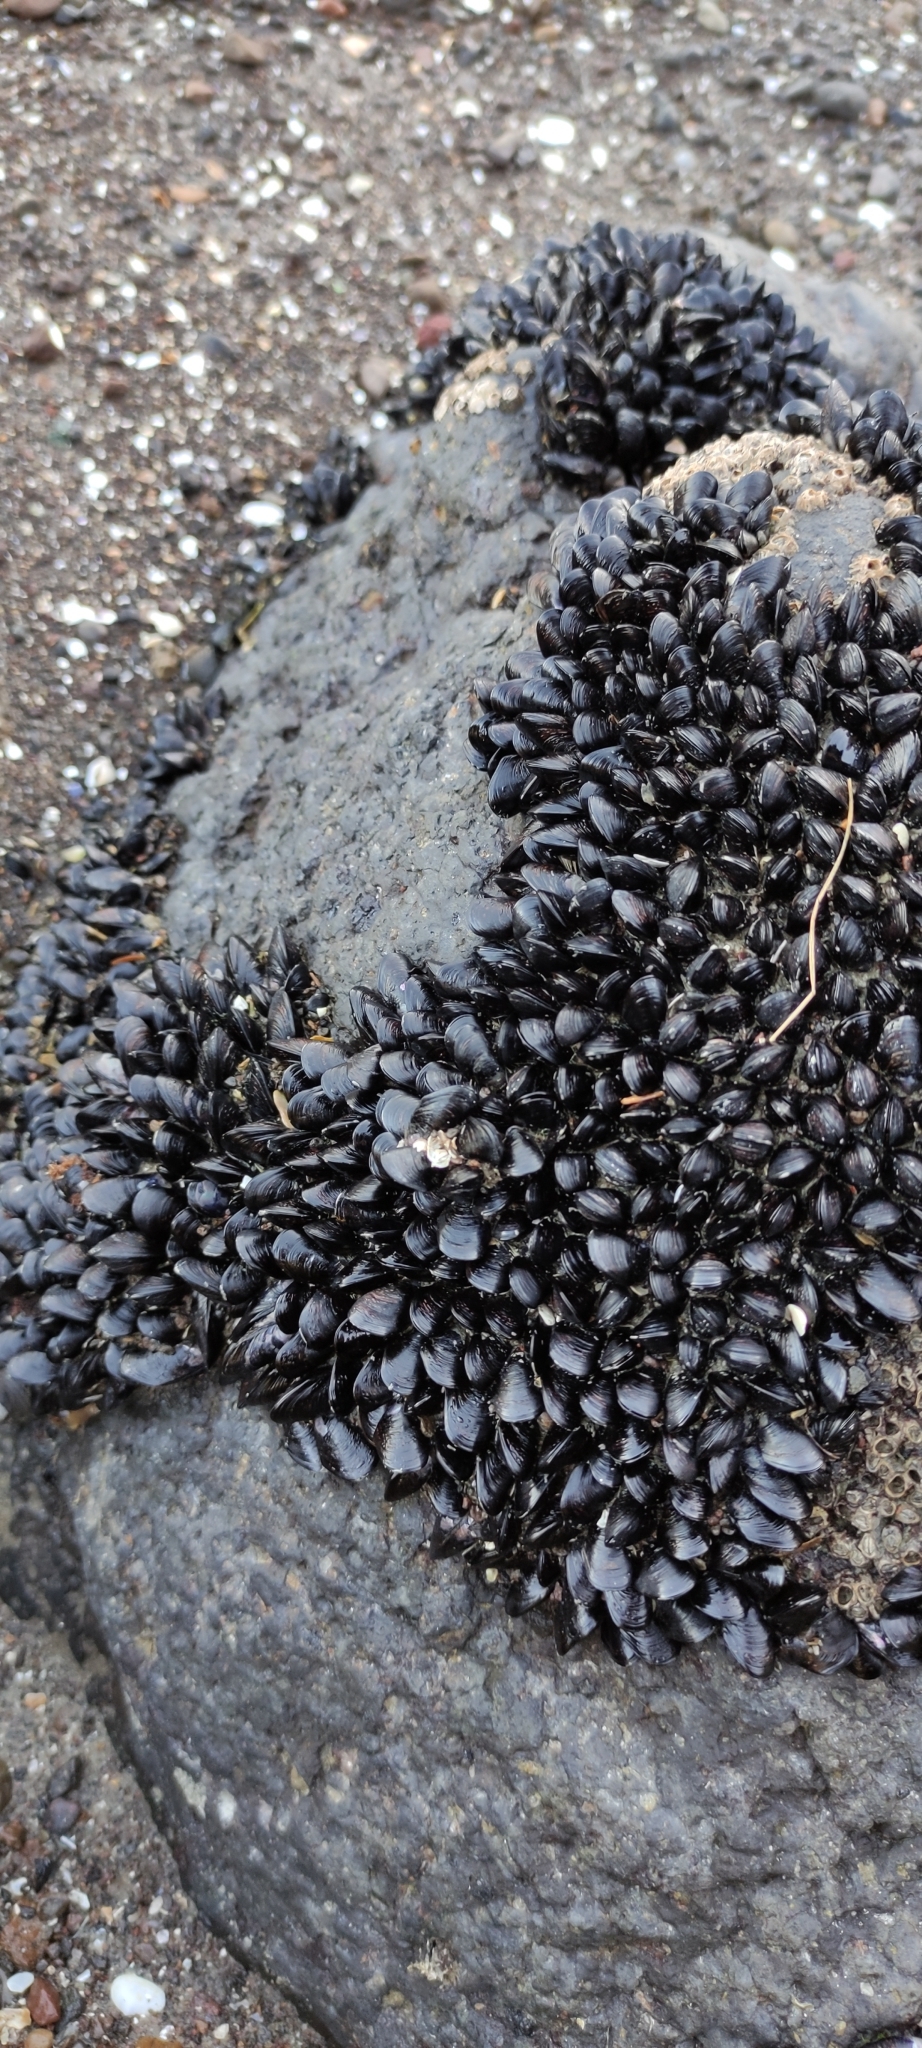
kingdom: Animalia
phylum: Mollusca
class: Bivalvia
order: Mytilida
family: Mytilidae
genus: Xenostrobus
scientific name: Xenostrobus neozelanicus
